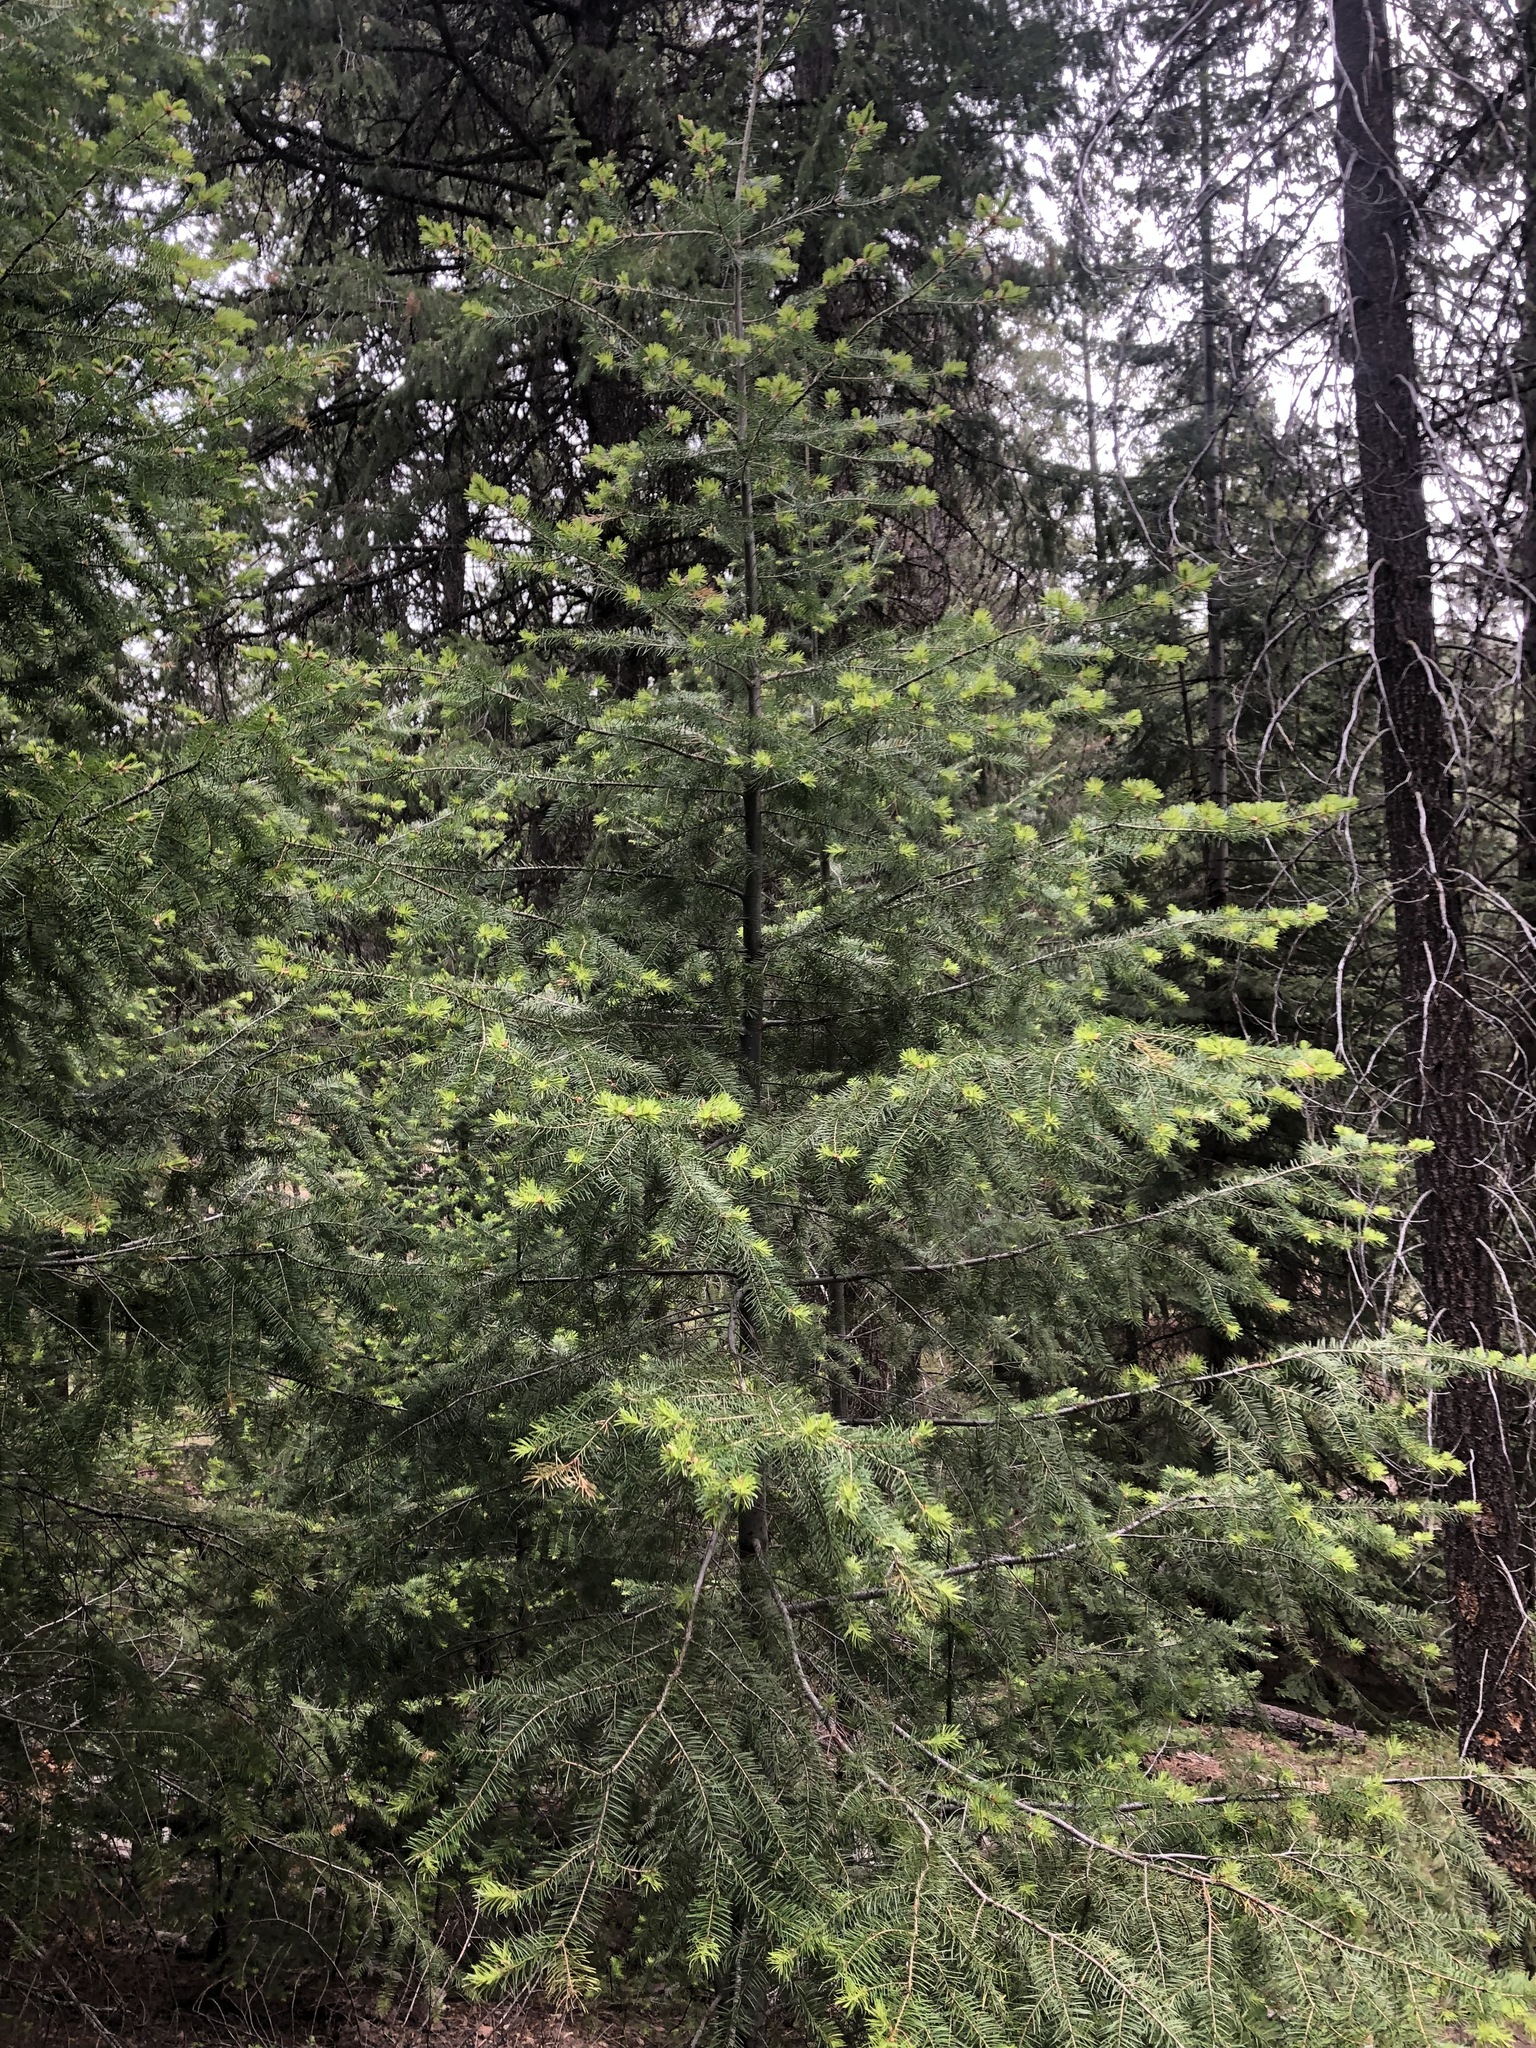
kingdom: Plantae
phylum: Tracheophyta
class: Pinopsida
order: Pinales
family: Pinaceae
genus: Pseudotsuga
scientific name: Pseudotsuga menziesii
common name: Douglas fir
